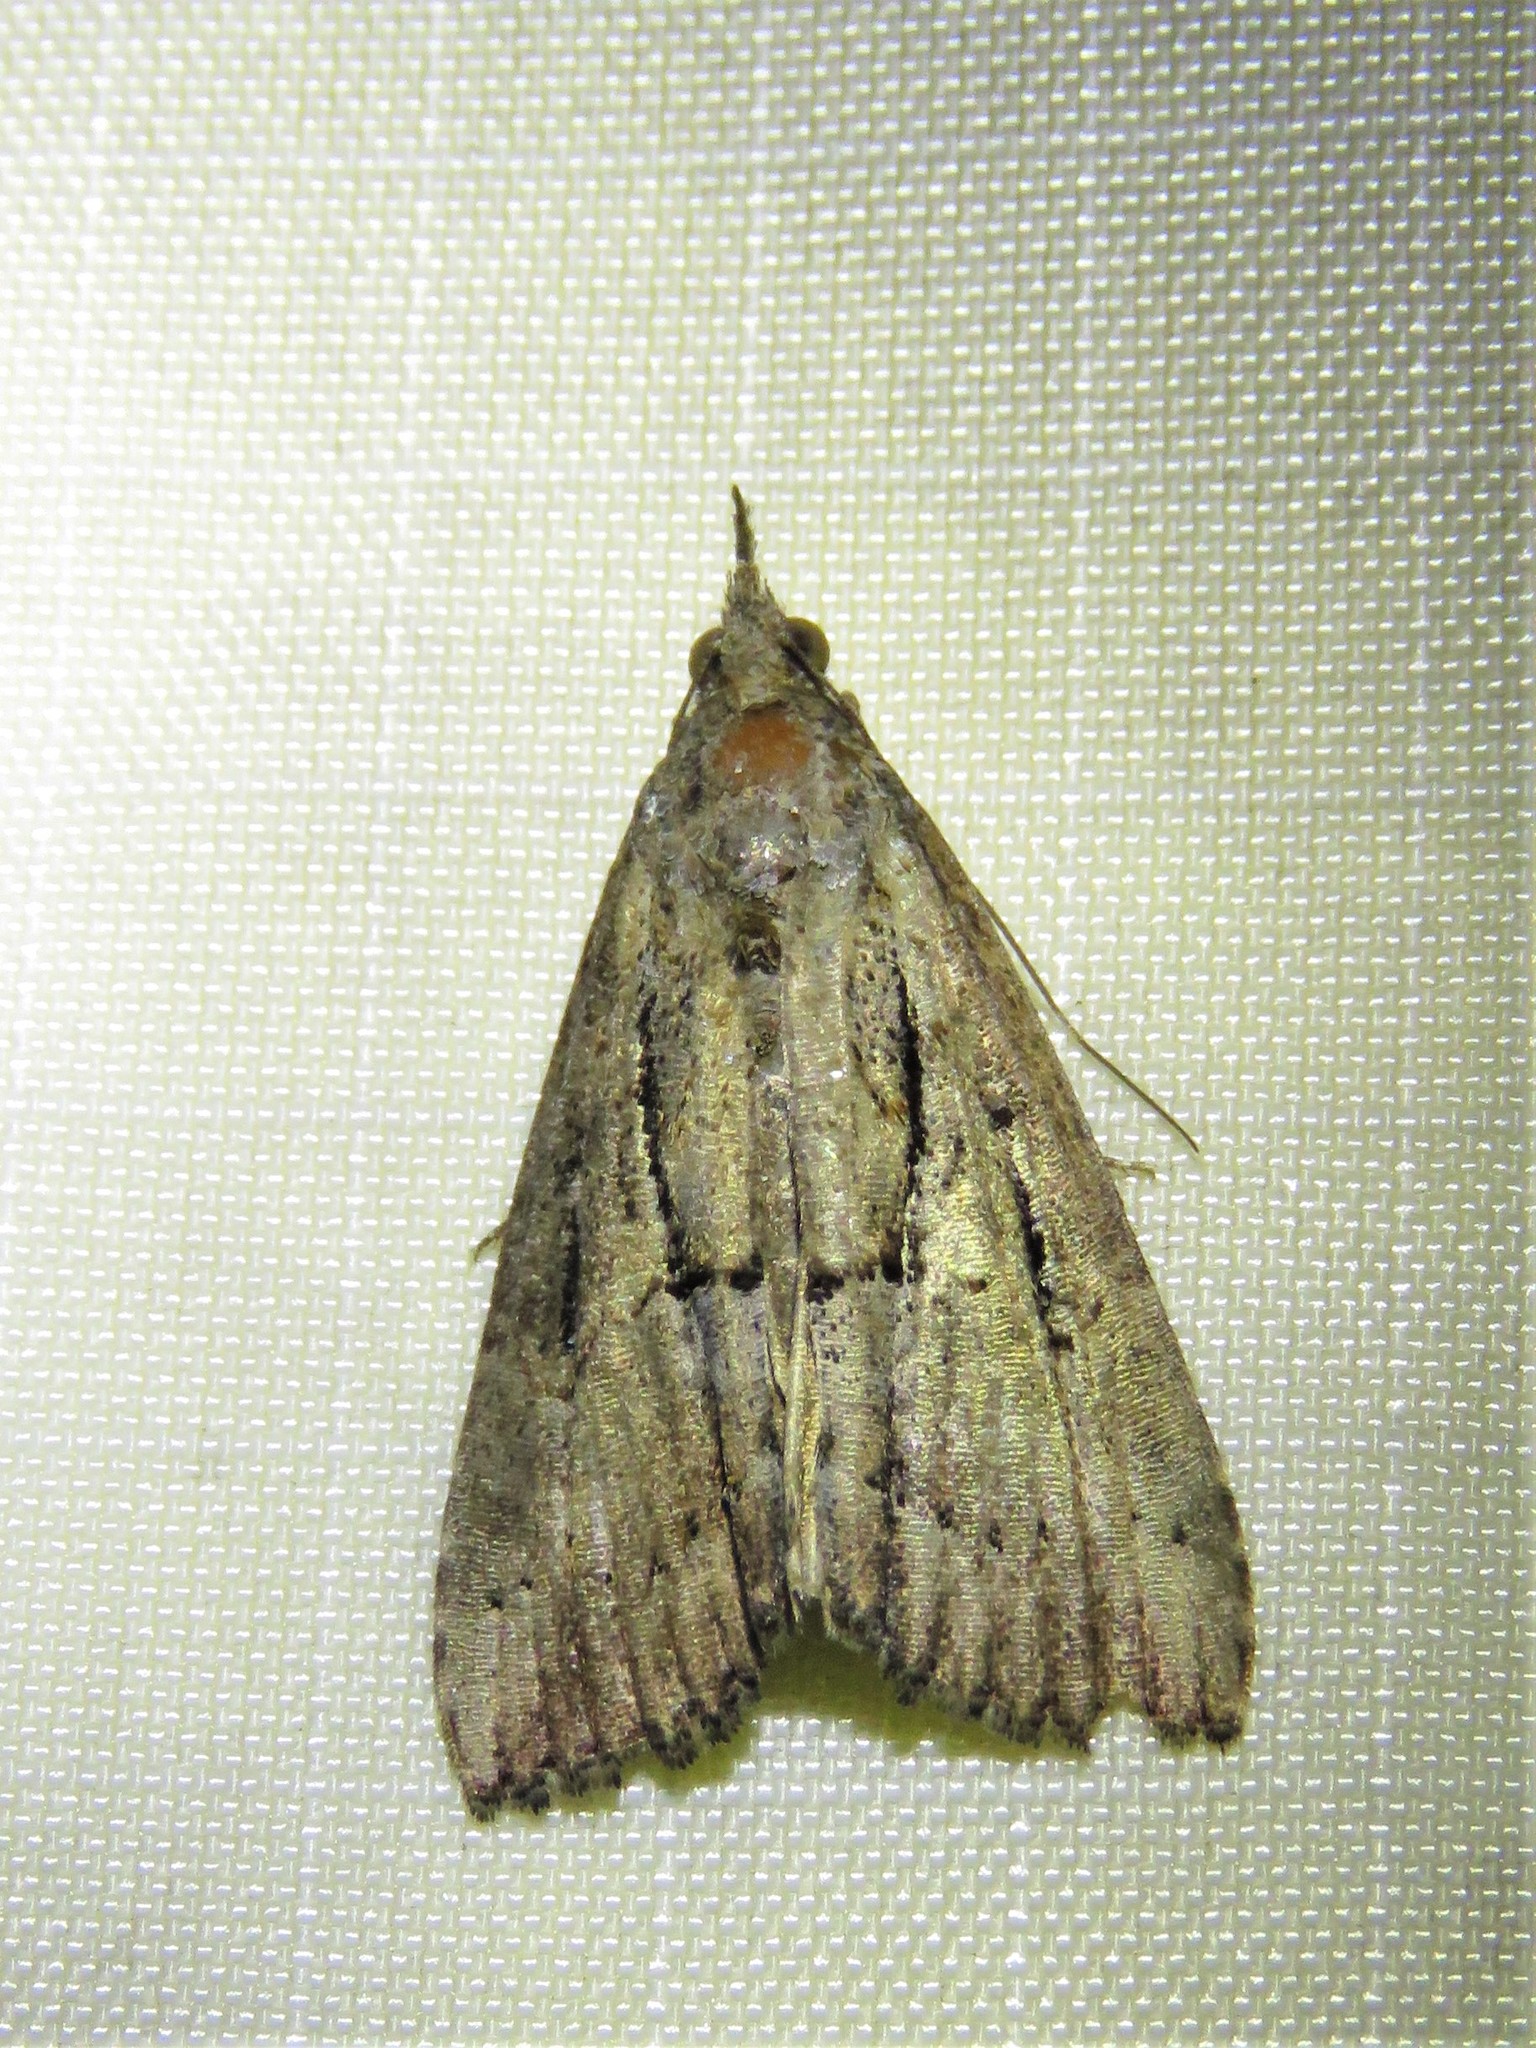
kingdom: Animalia
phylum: Arthropoda
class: Insecta
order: Lepidoptera
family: Erebidae
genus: Hypena
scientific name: Hypena scabra
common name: Green cloverworm
